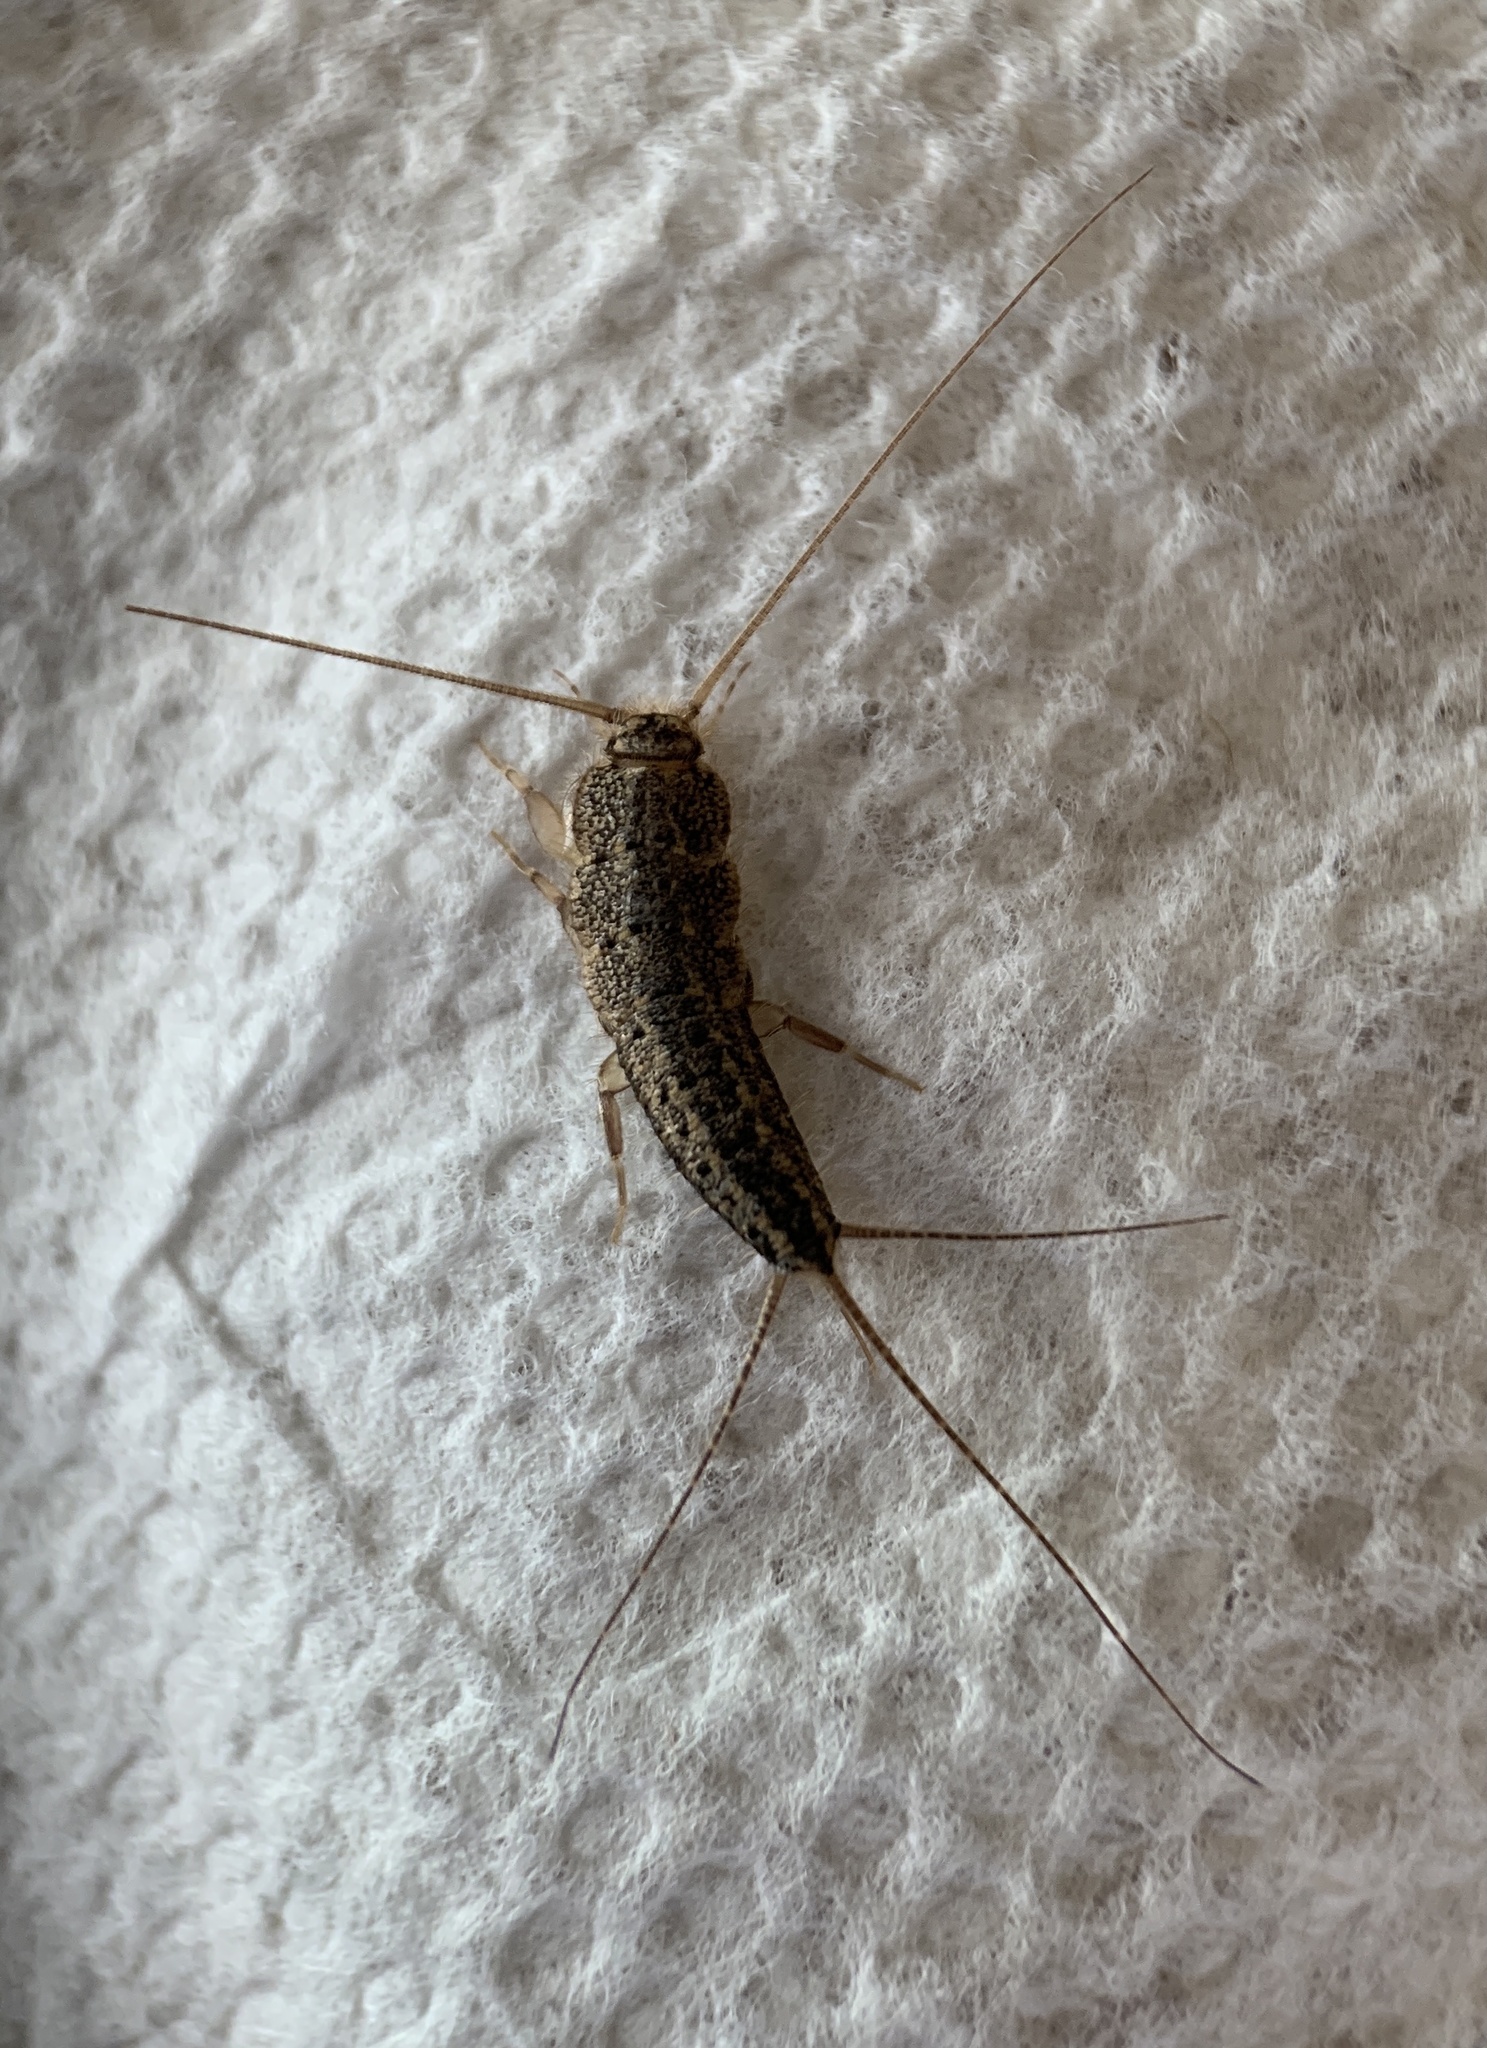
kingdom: Animalia
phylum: Arthropoda
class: Insecta
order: Zygentoma
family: Lepismatidae
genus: Ctenolepisma
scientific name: Ctenolepisma lineata
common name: Four-lined silverfish
